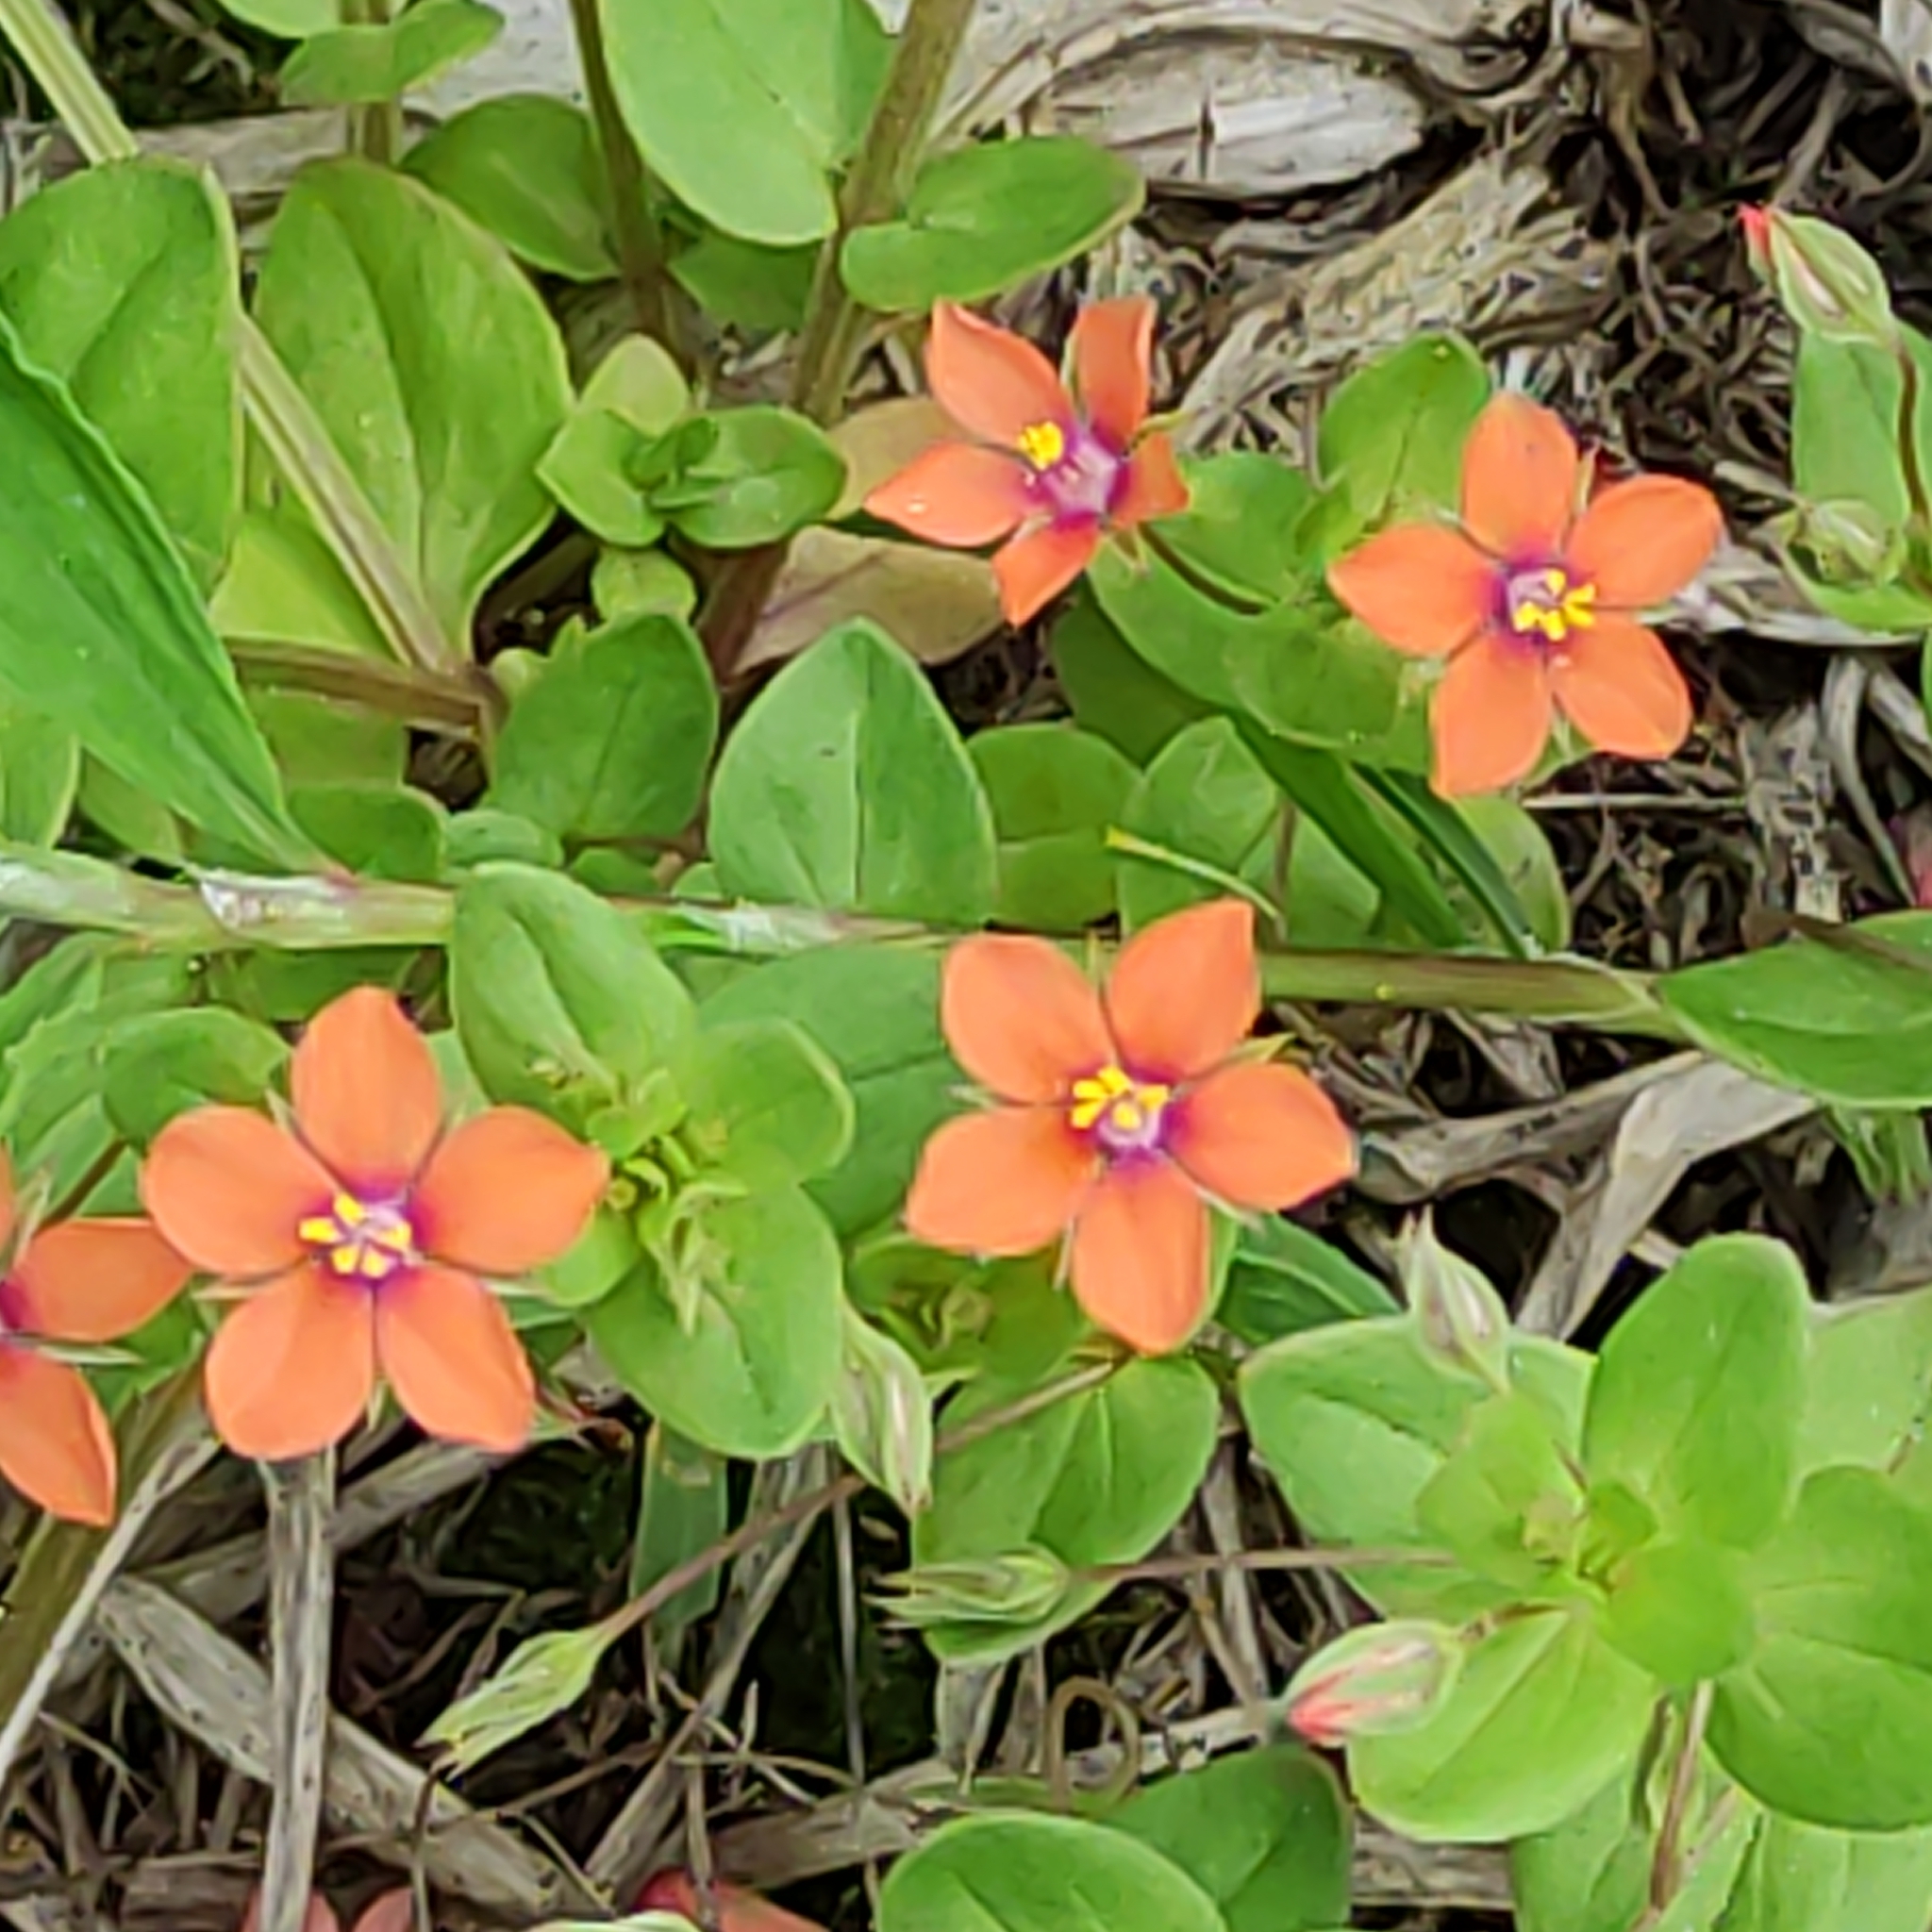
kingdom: Plantae
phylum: Tracheophyta
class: Magnoliopsida
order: Ericales
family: Primulaceae
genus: Lysimachia
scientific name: Lysimachia arvensis
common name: Scarlet pimpernel
